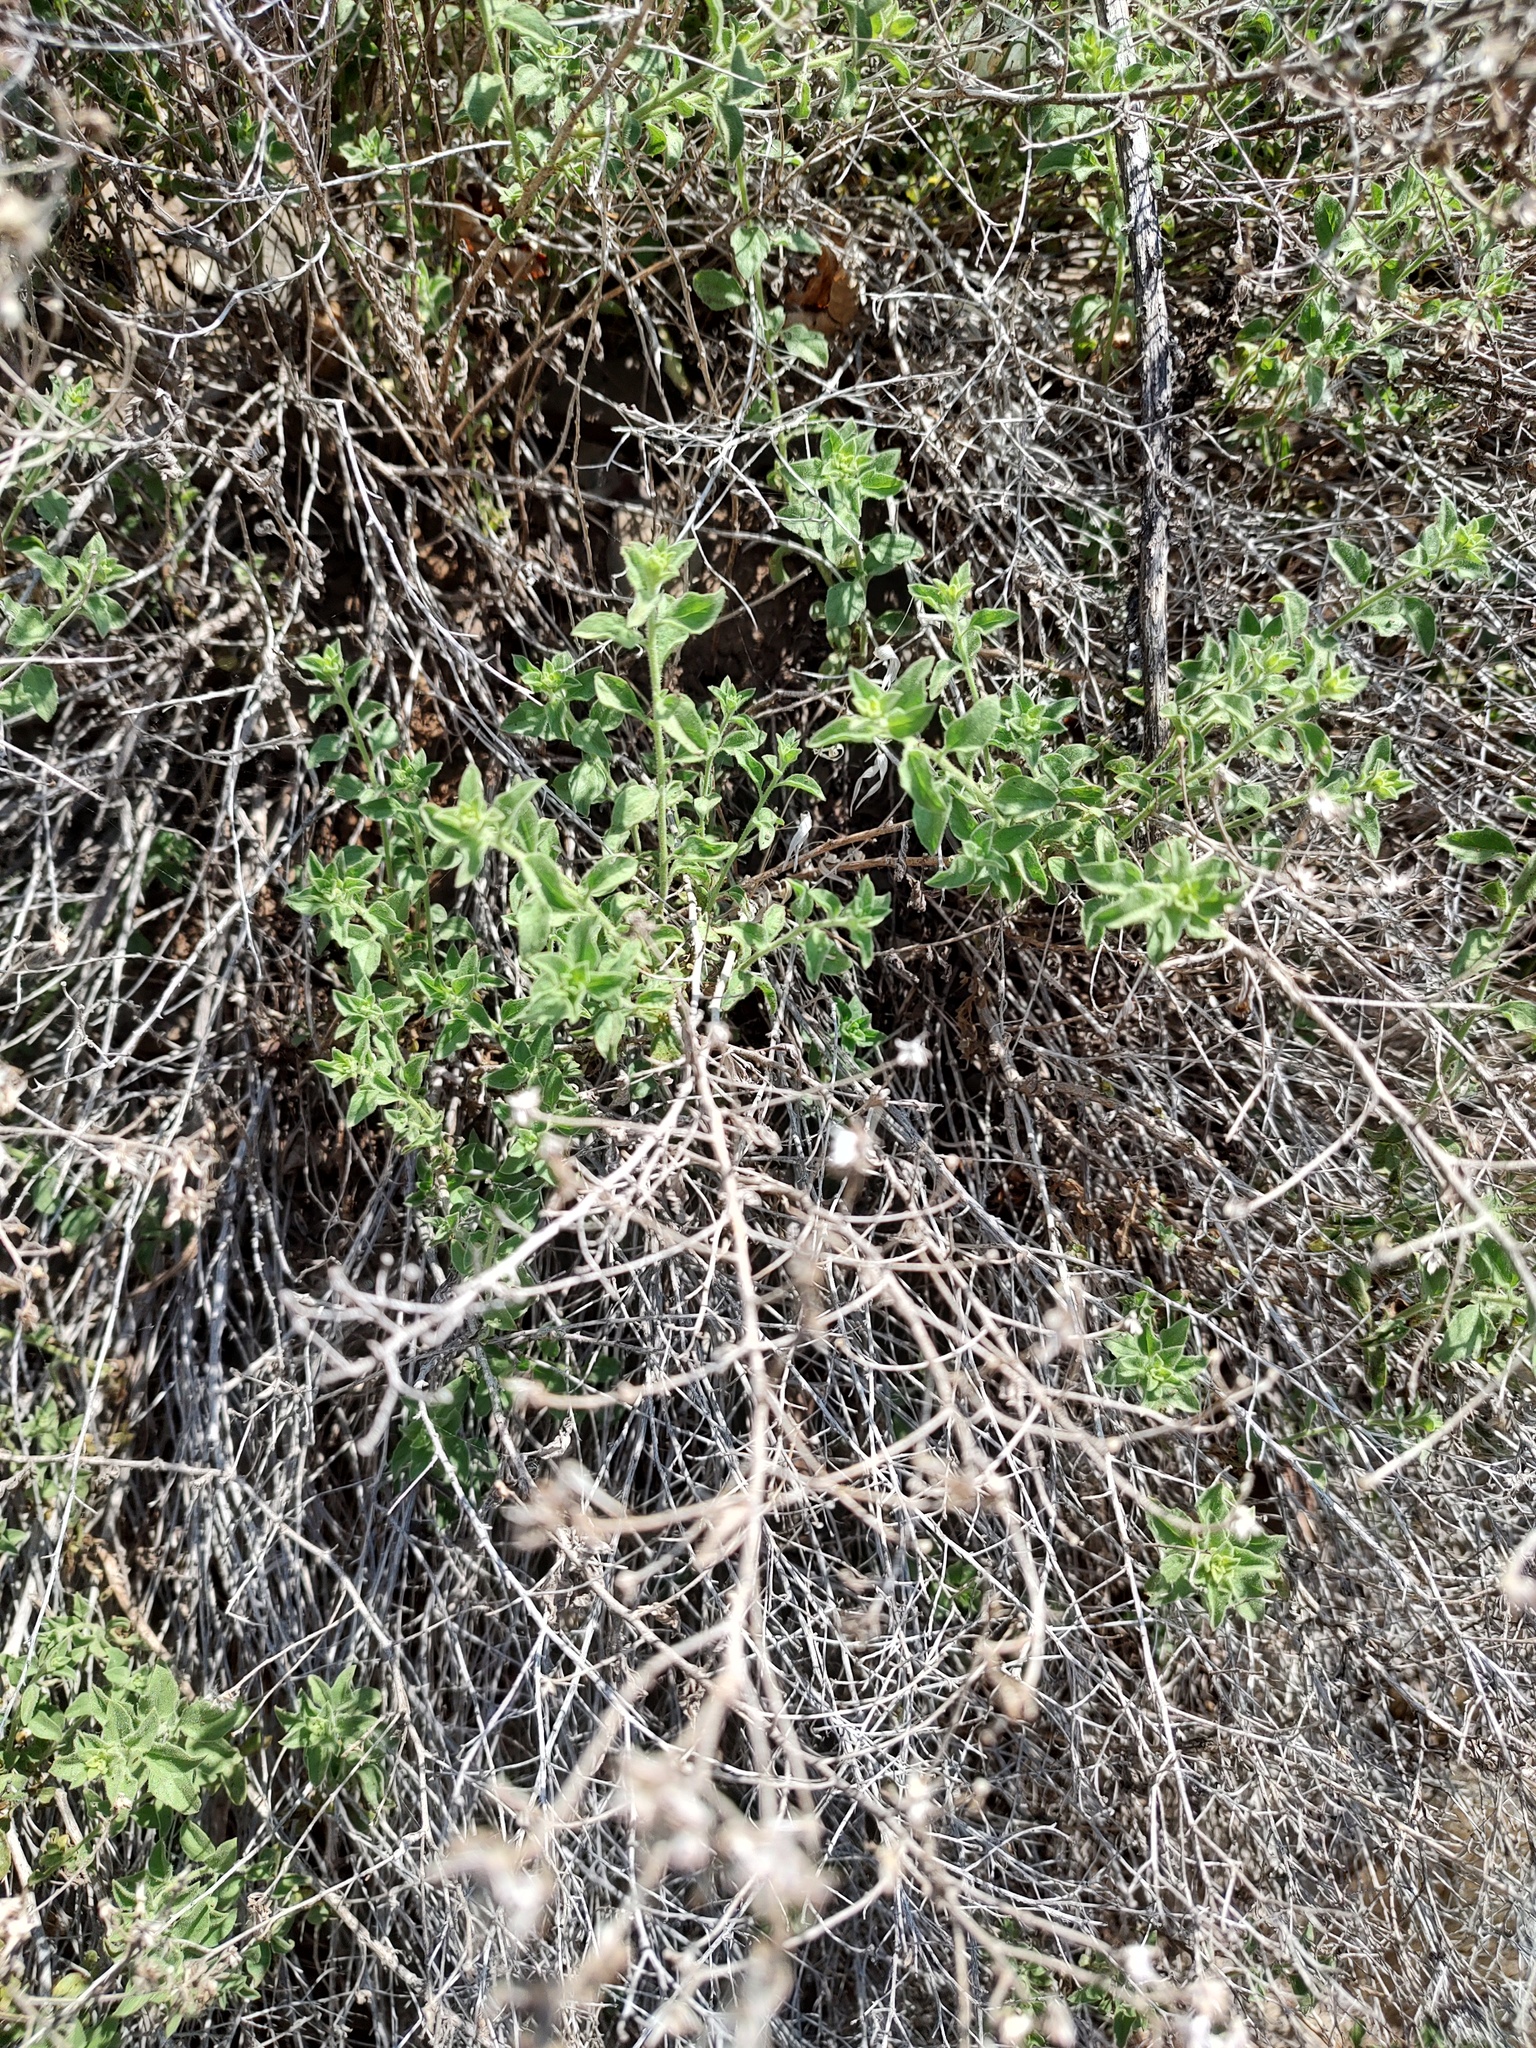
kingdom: Plantae
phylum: Tracheophyta
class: Magnoliopsida
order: Asterales
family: Asteraceae
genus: Brickellia
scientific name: Brickellia microphylla
